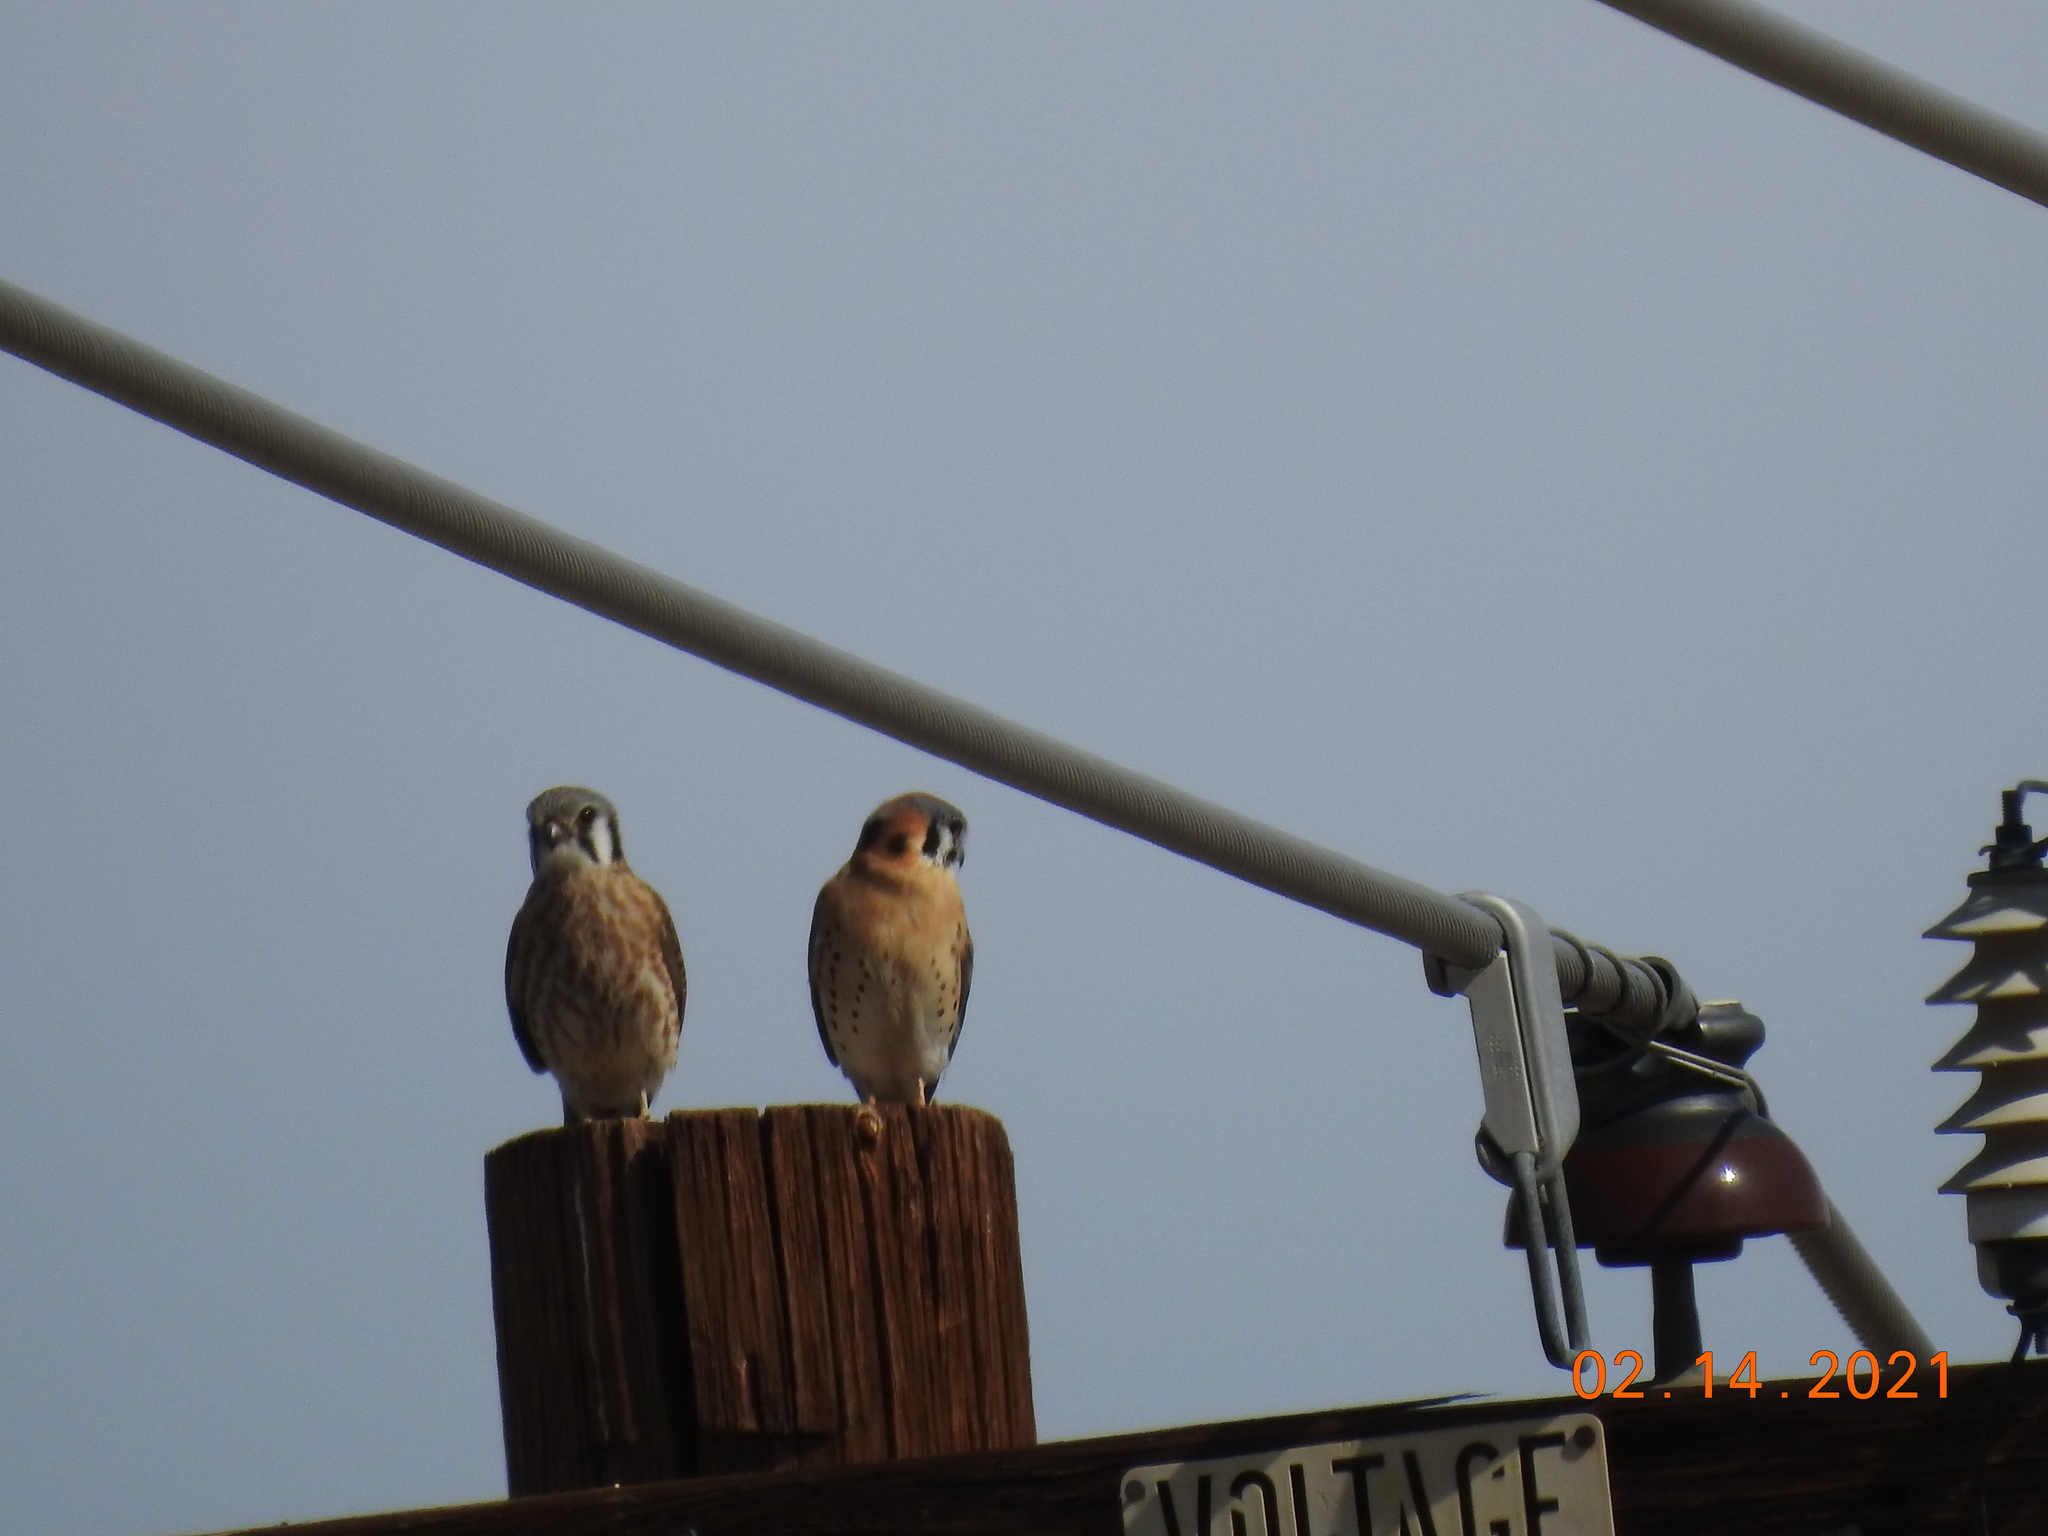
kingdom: Animalia
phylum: Chordata
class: Aves
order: Falconiformes
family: Falconidae
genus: Falco
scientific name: Falco sparverius
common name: American kestrel
